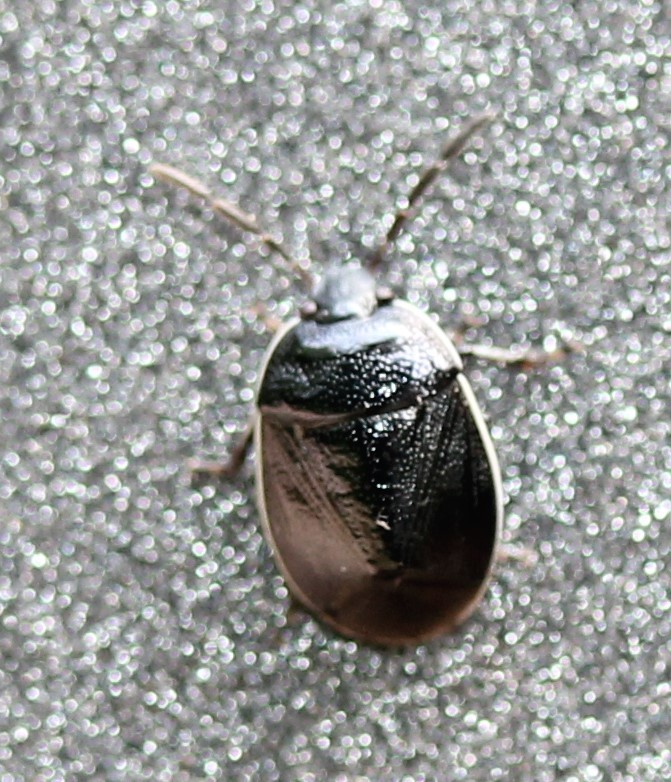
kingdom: Animalia
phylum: Arthropoda
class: Insecta
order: Hemiptera
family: Cydnidae
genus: Sehirus
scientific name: Sehirus cinctus
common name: White-margined burrower bug
